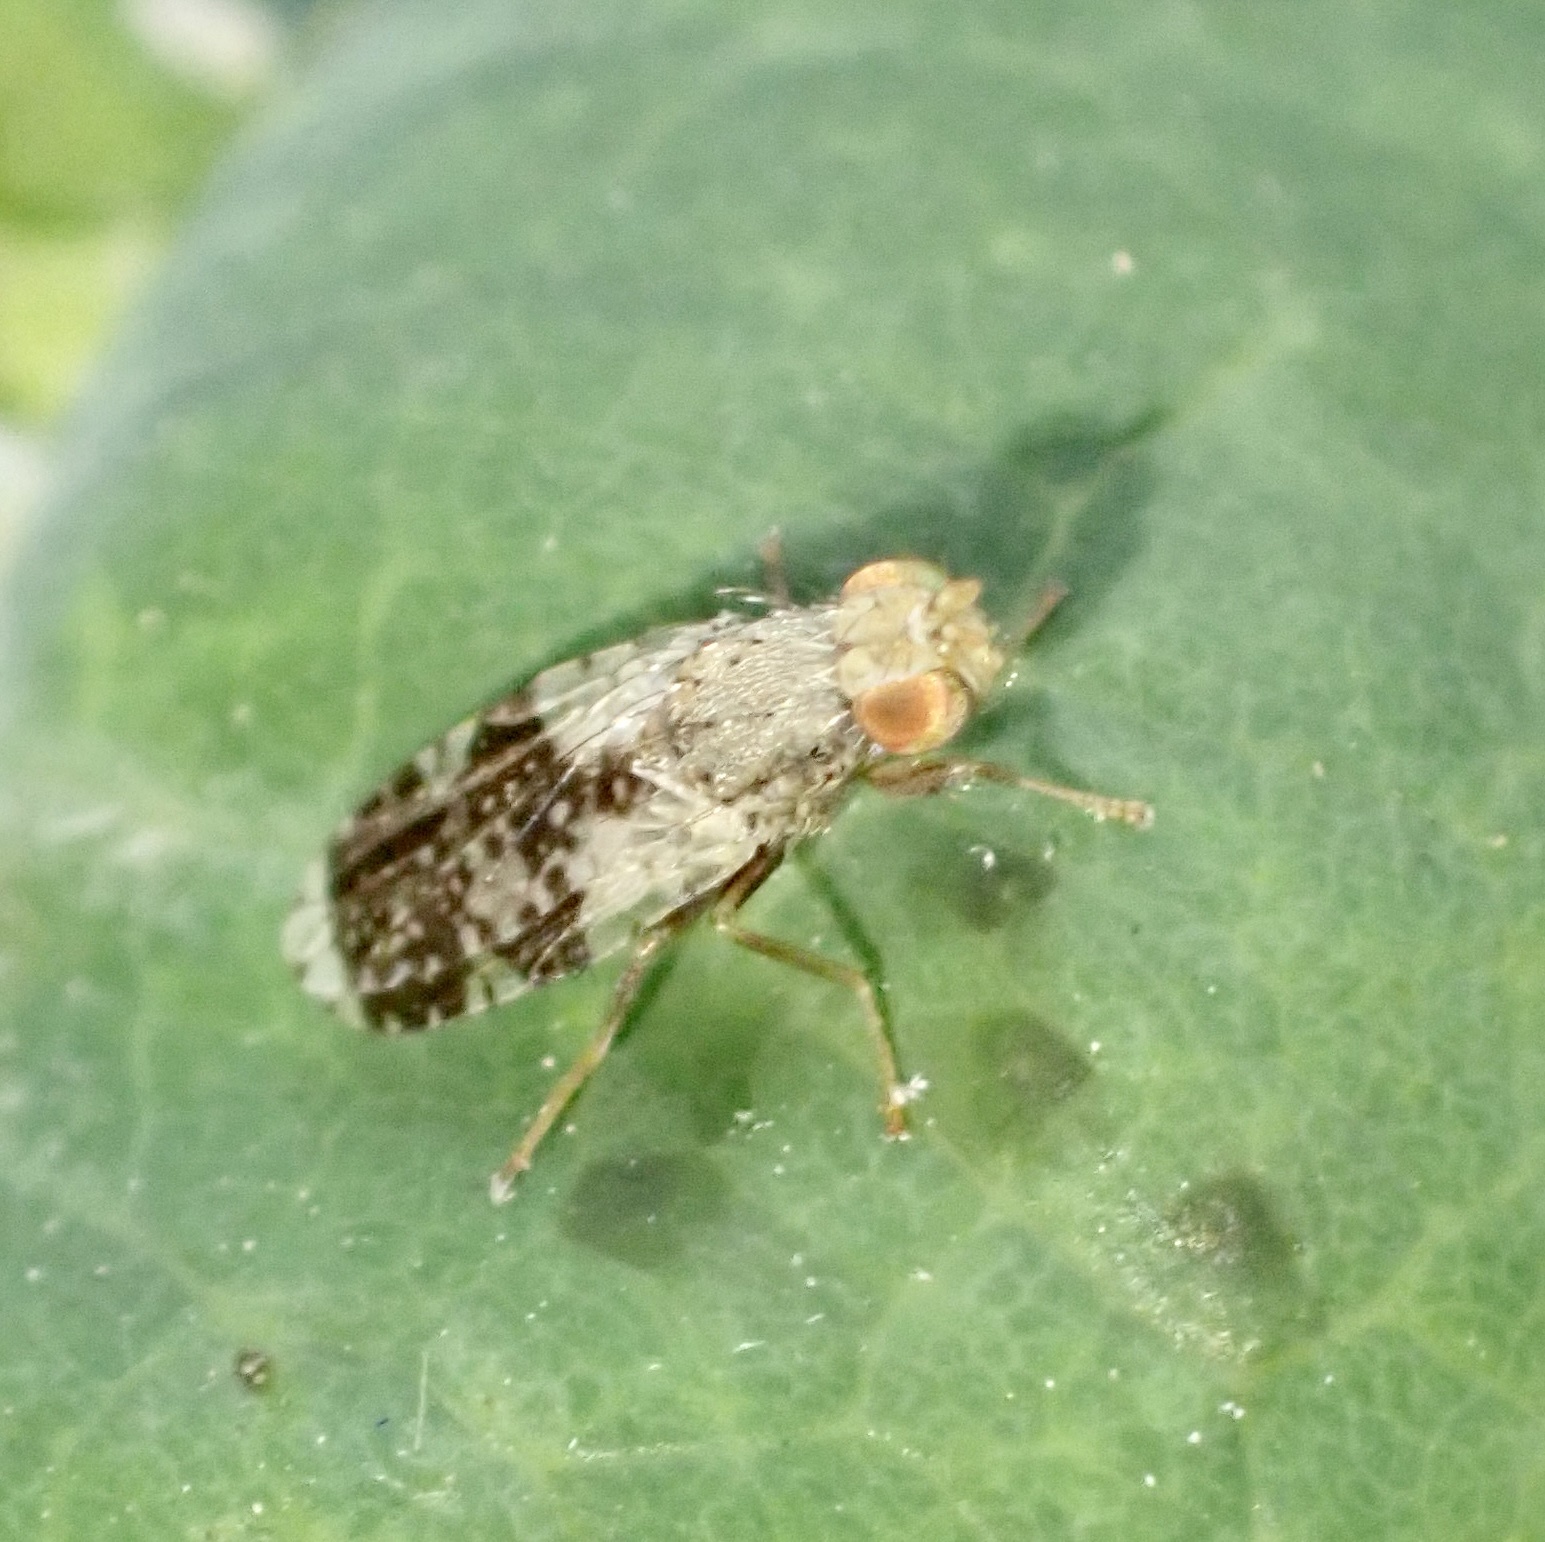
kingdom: Animalia
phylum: Arthropoda
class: Insecta
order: Diptera
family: Tephritidae
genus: Tephritis
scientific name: Tephritis formosa
